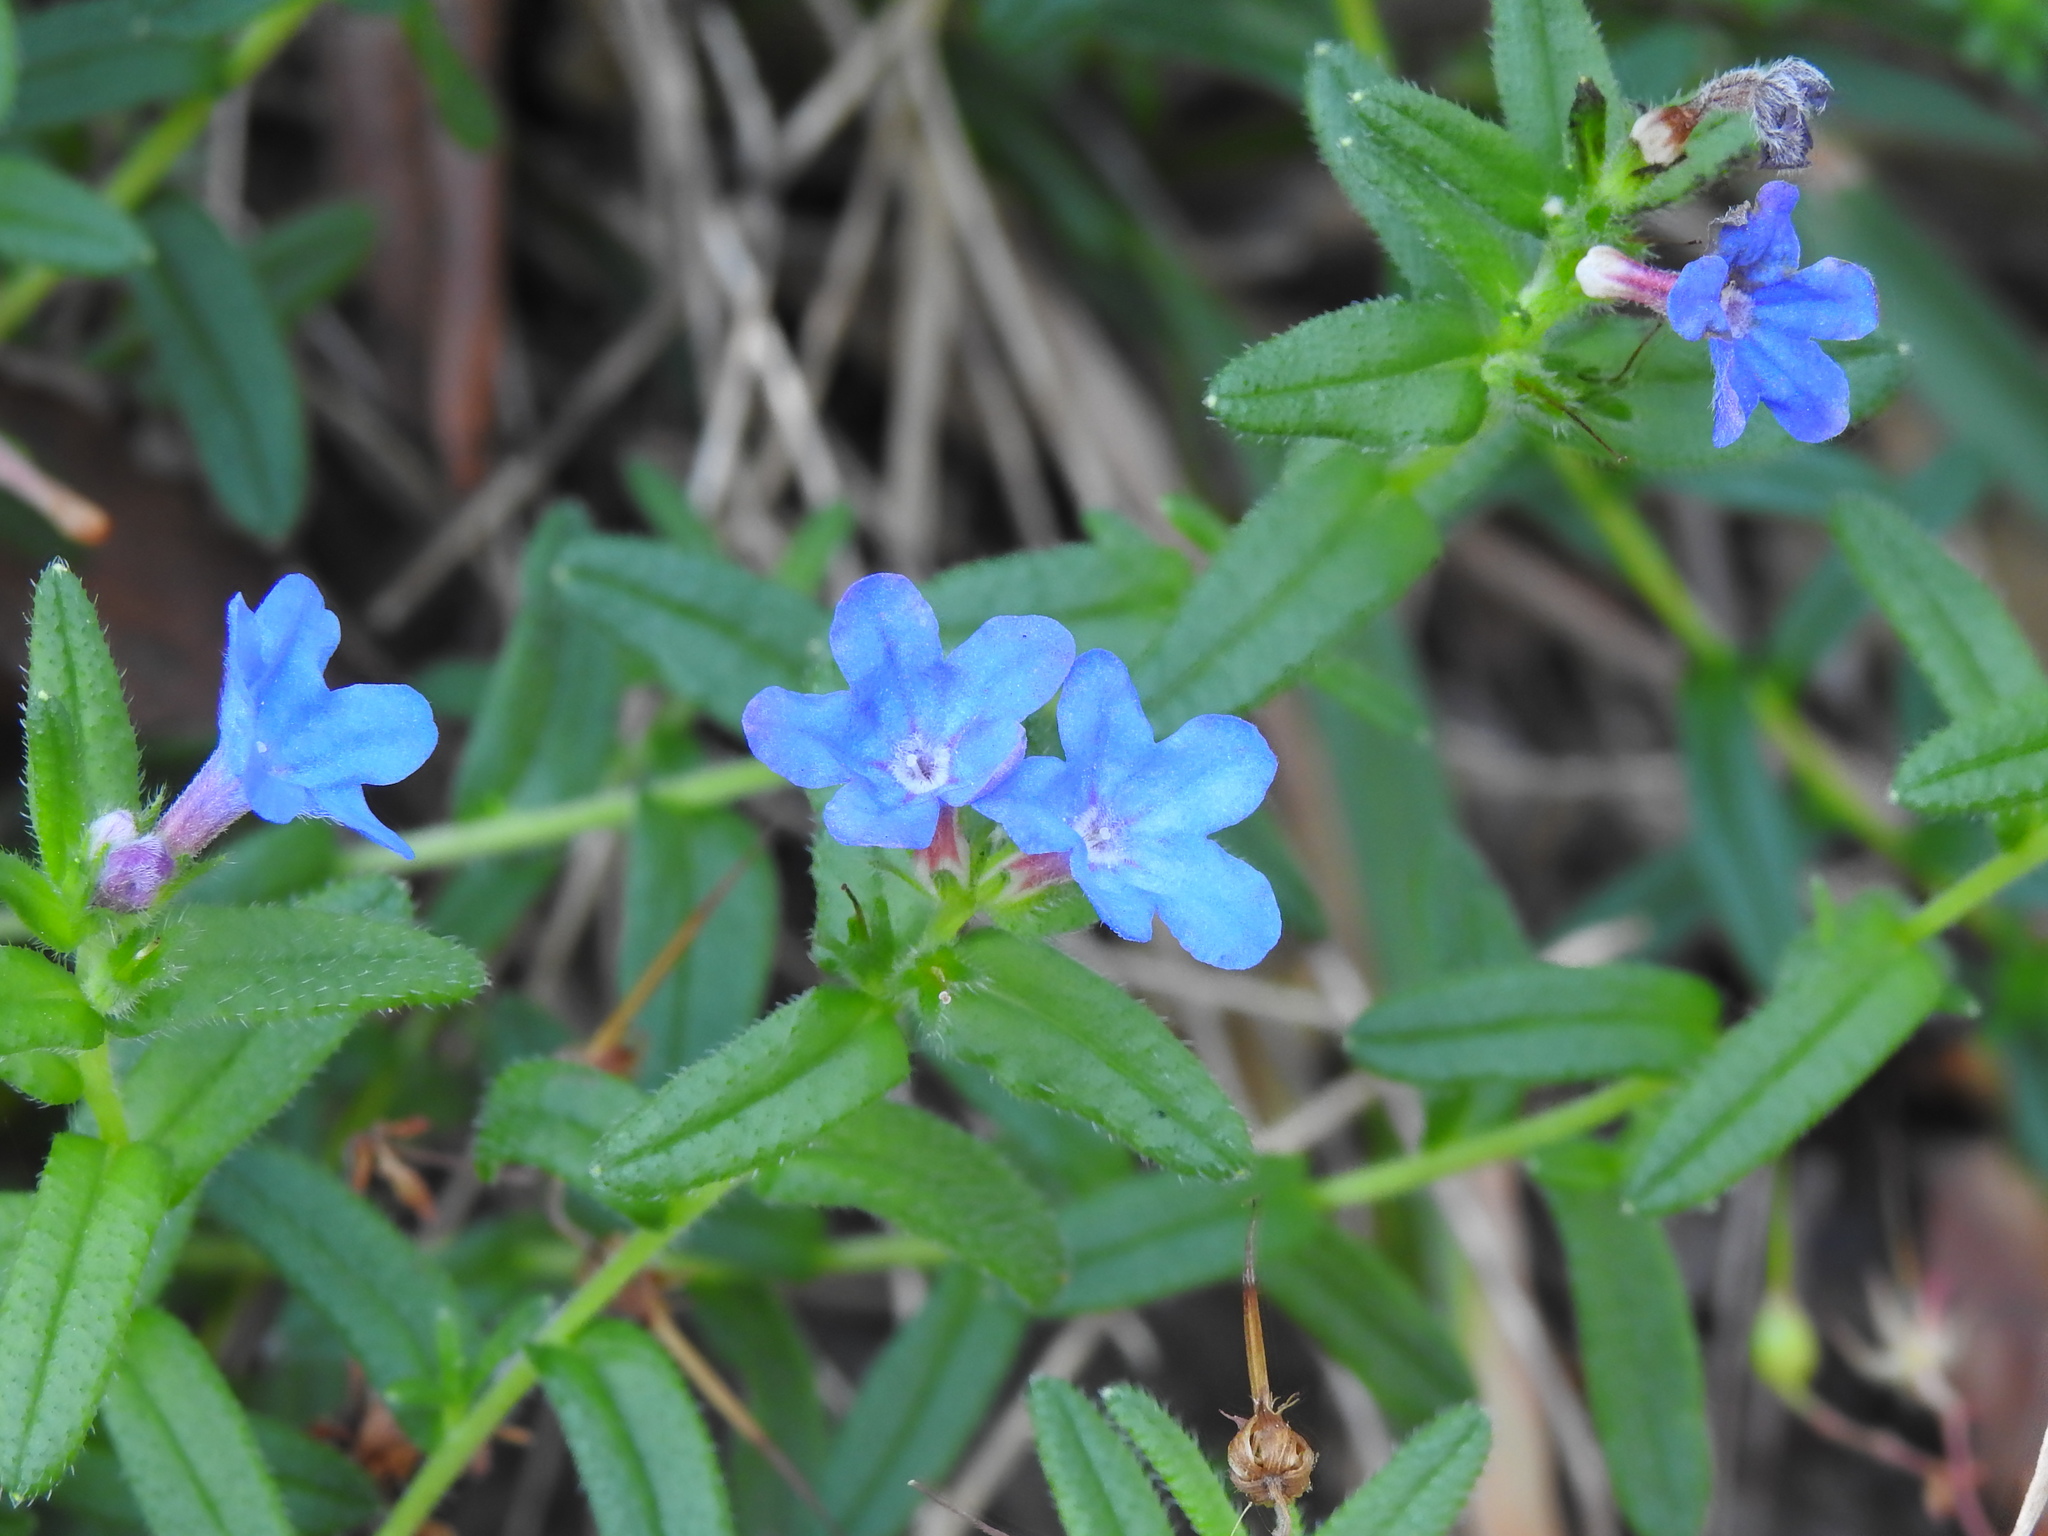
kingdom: Plantae
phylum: Tracheophyta
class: Magnoliopsida
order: Boraginales
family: Boraginaceae
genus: Glandora
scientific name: Glandora prostrata
